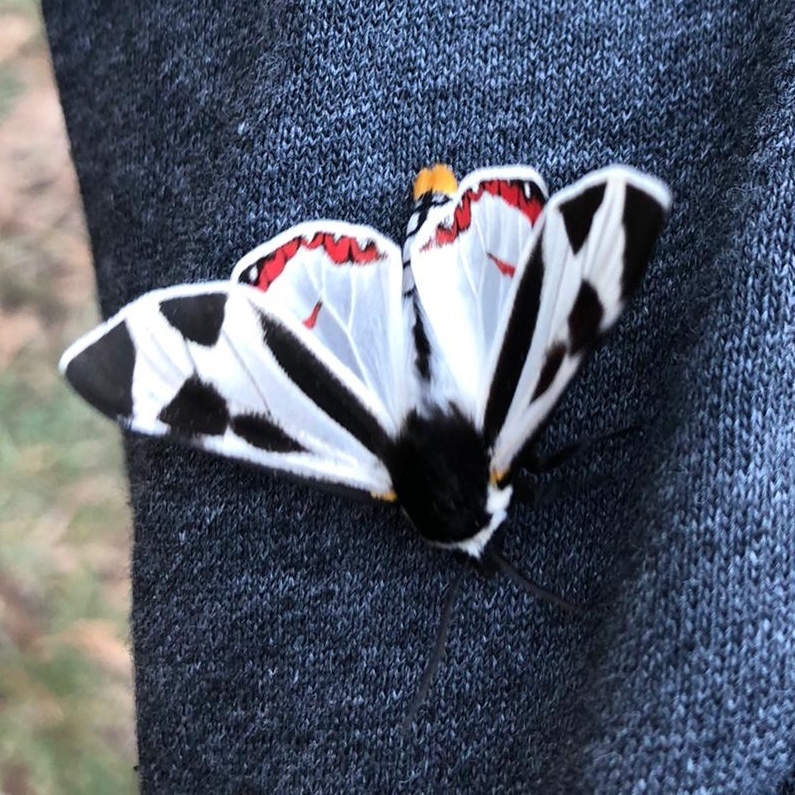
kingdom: Animalia
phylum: Arthropoda
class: Insecta
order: Lepidoptera
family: Erebidae
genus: Dysschema
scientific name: Dysschema centenaria
